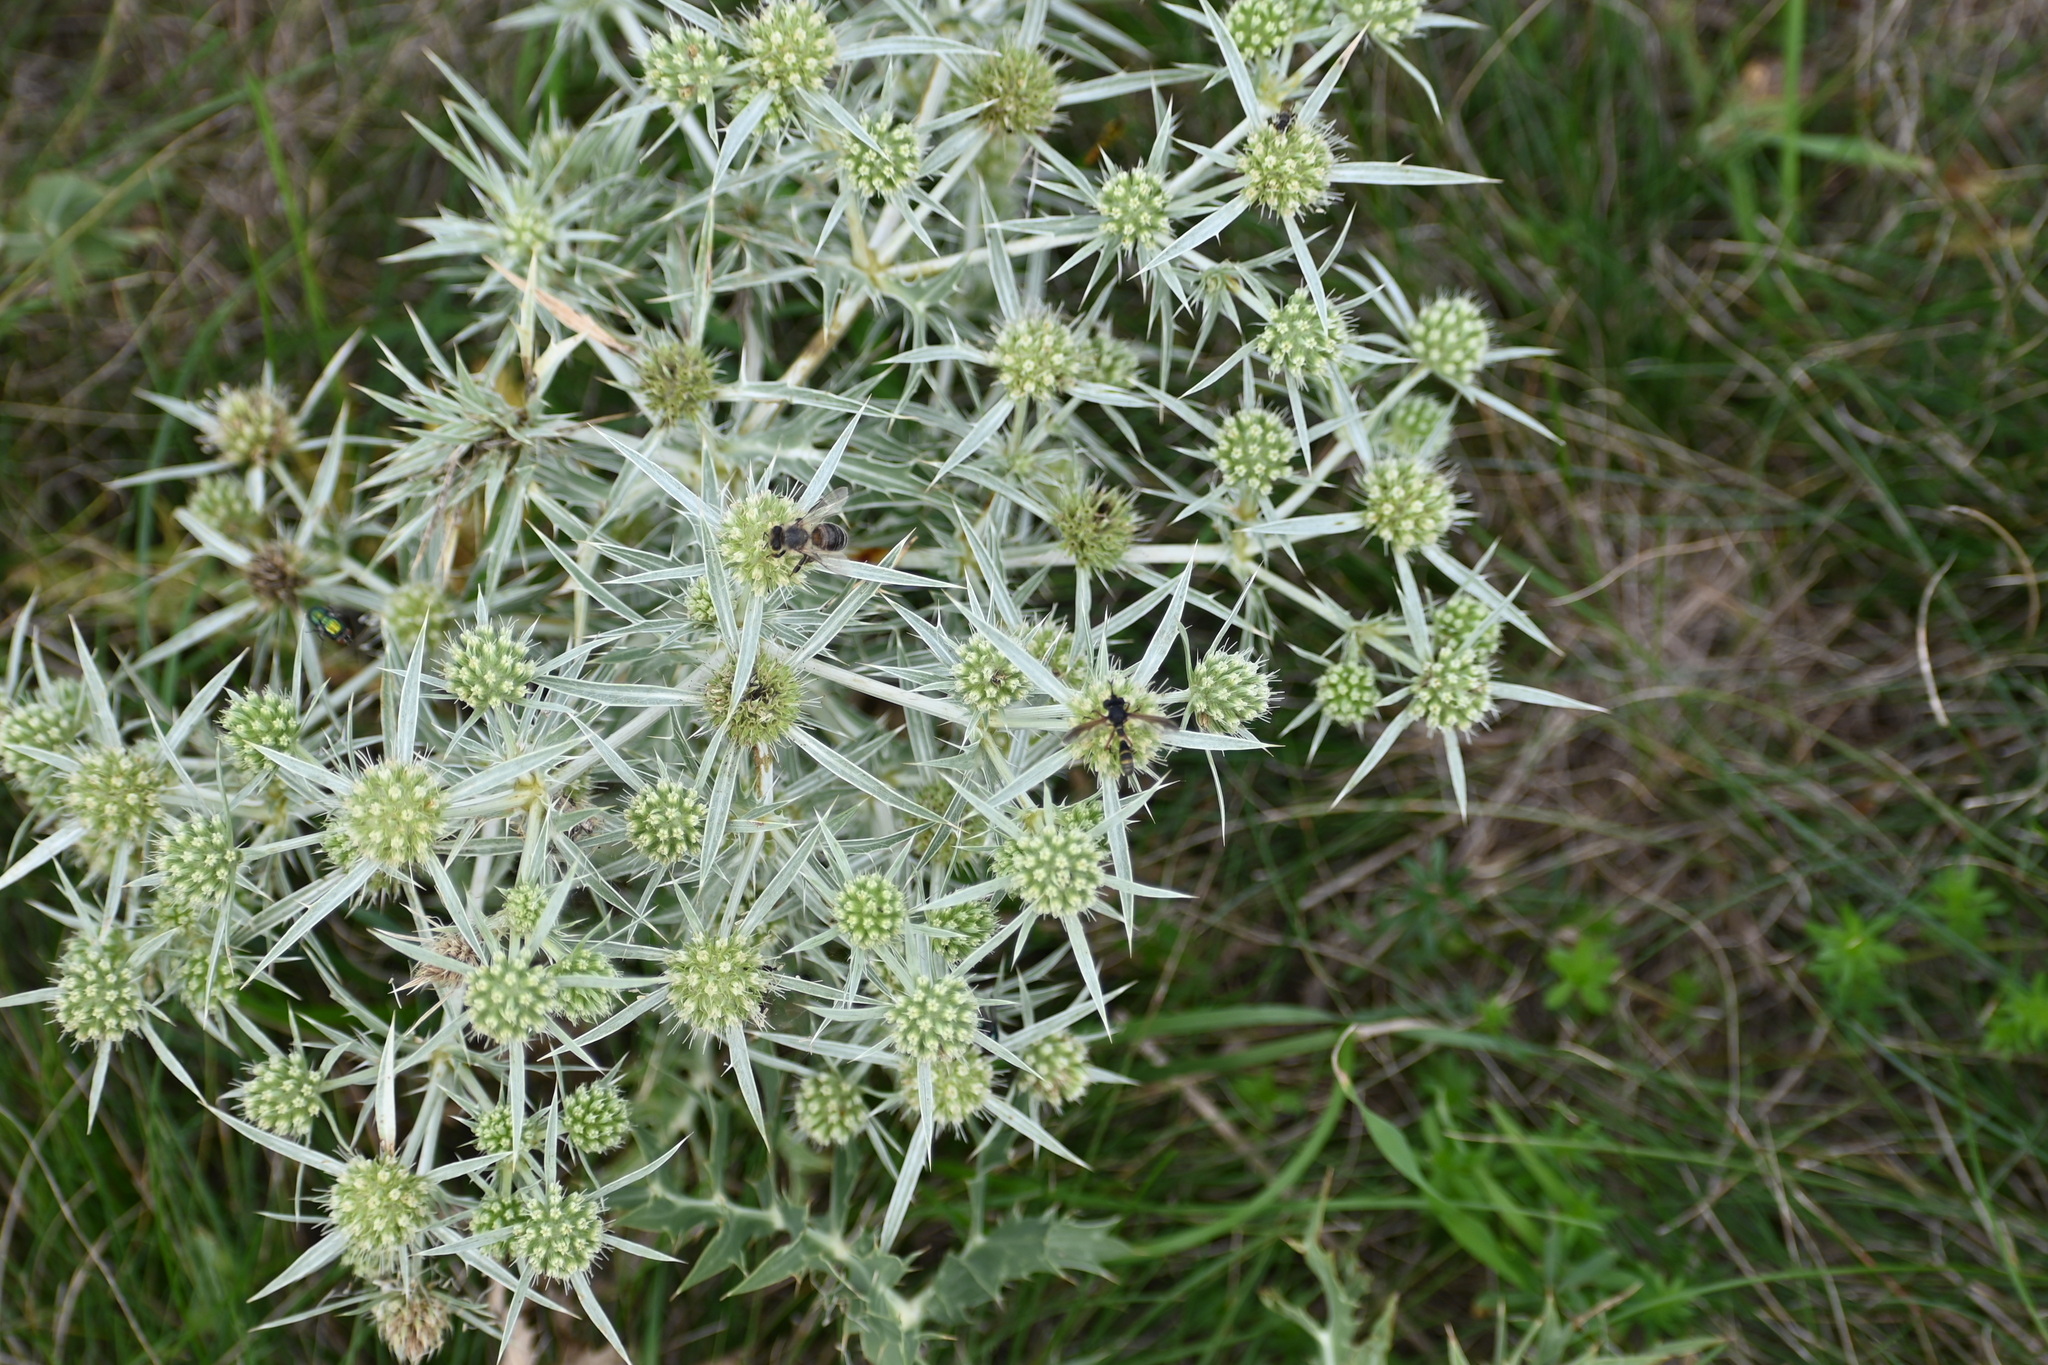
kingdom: Plantae
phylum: Tracheophyta
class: Magnoliopsida
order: Apiales
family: Apiaceae
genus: Eryngium
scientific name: Eryngium campestre
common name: Field eryngo
